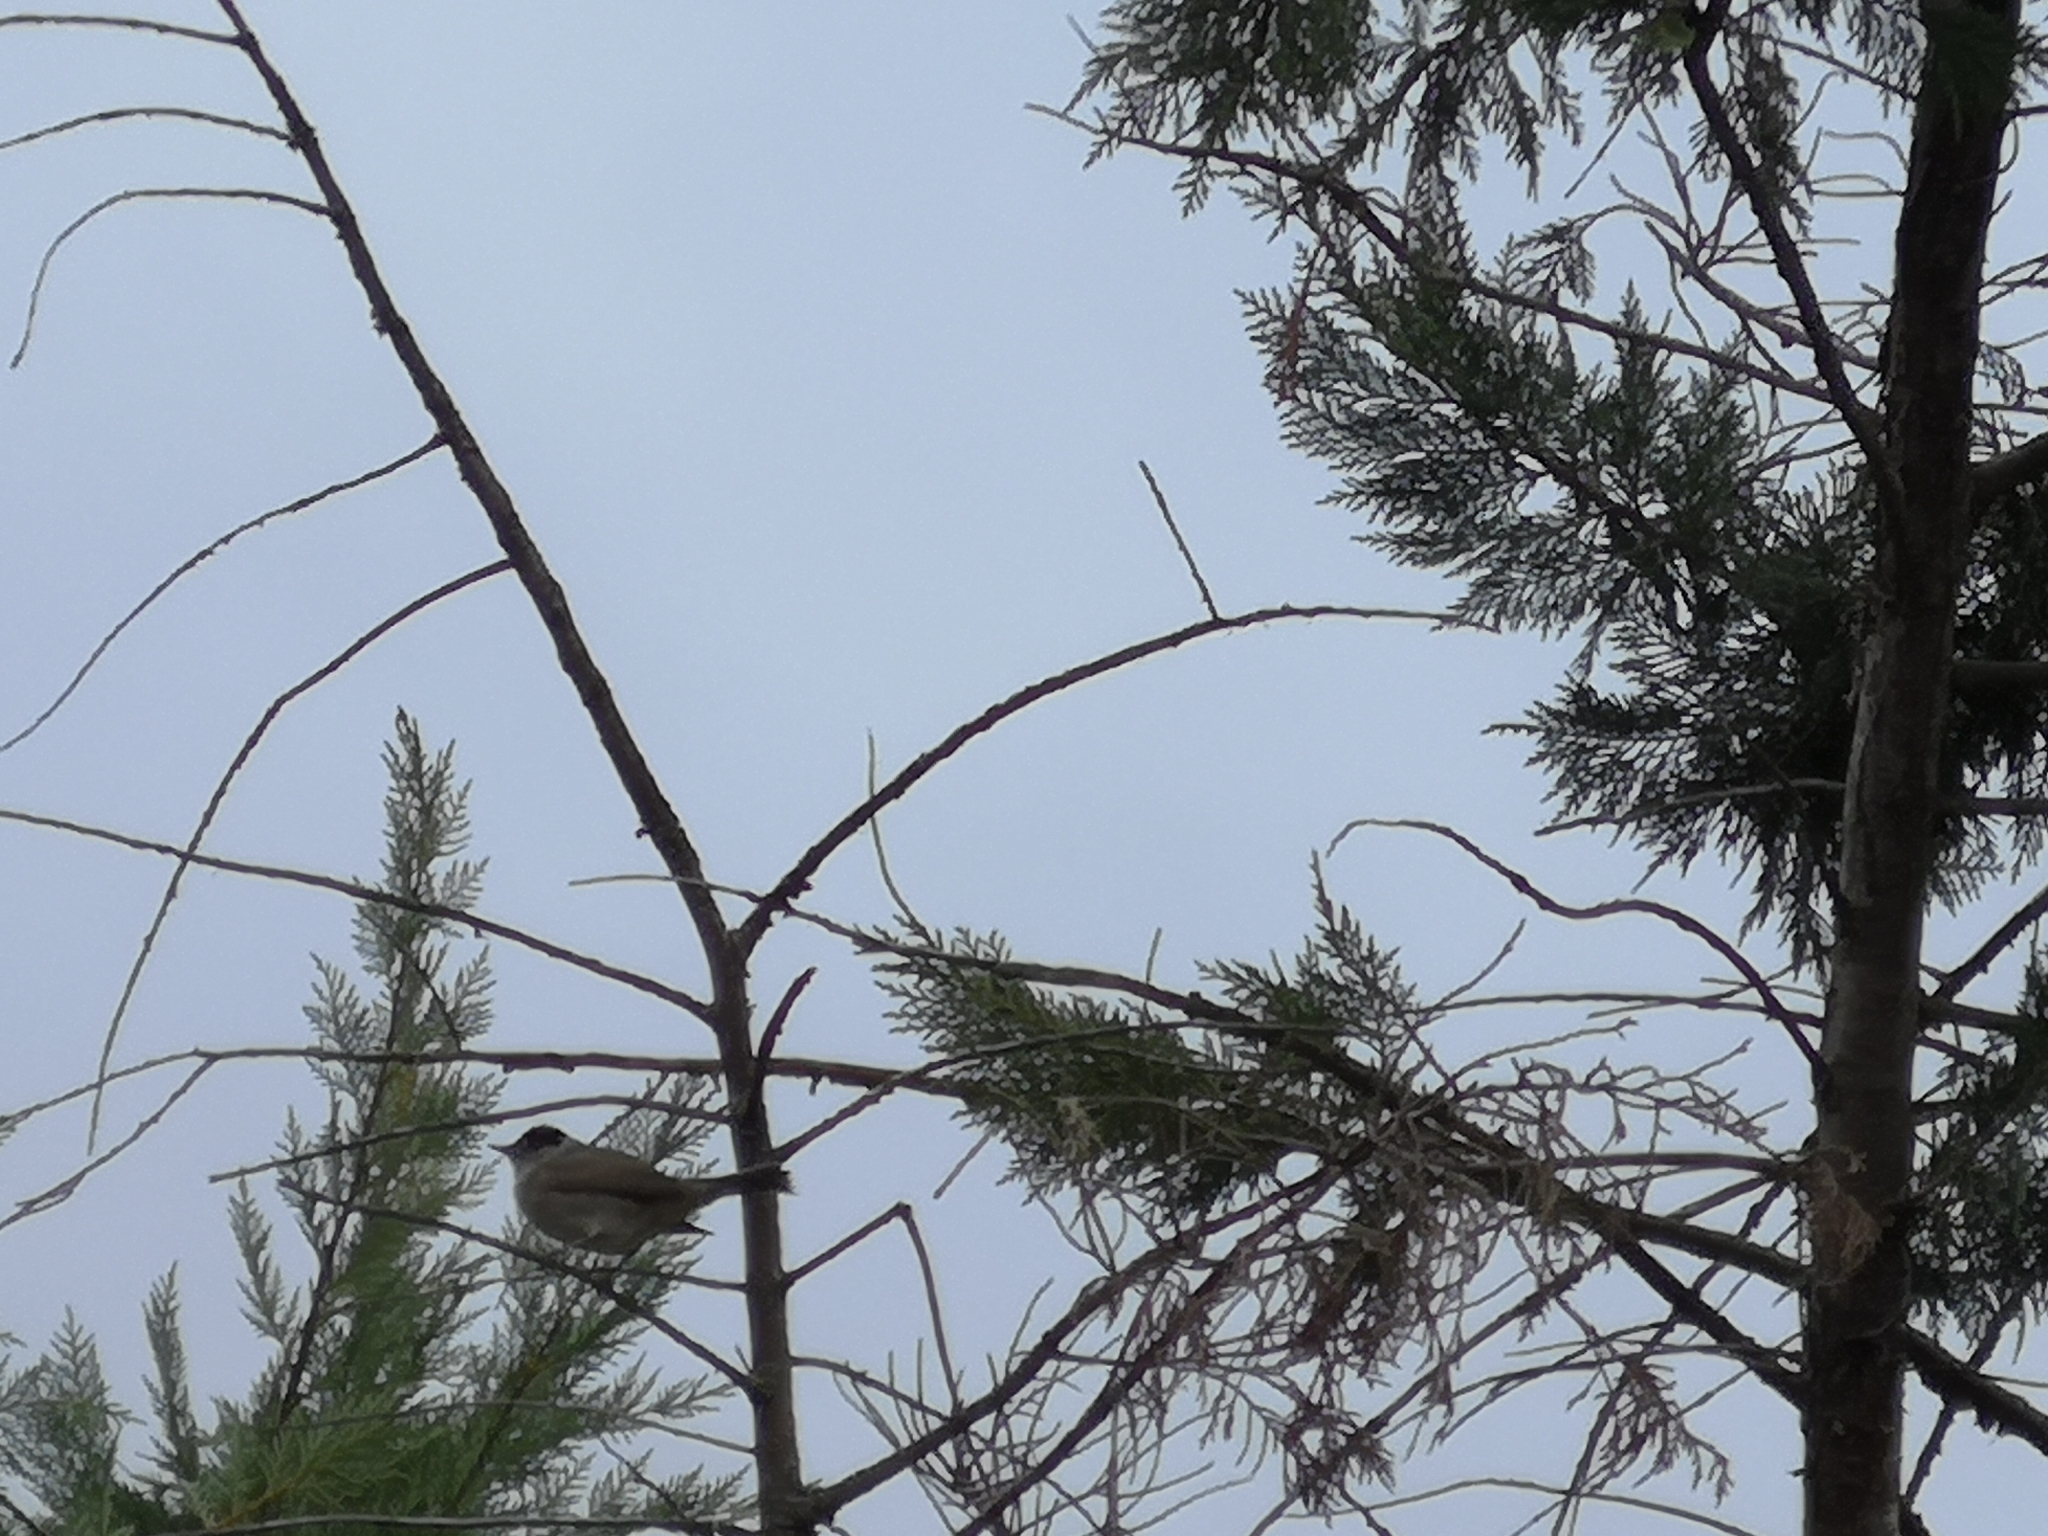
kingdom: Animalia
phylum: Chordata
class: Aves
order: Passeriformes
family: Sylviidae
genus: Sylvia
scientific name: Sylvia atricapilla
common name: Eurasian blackcap
